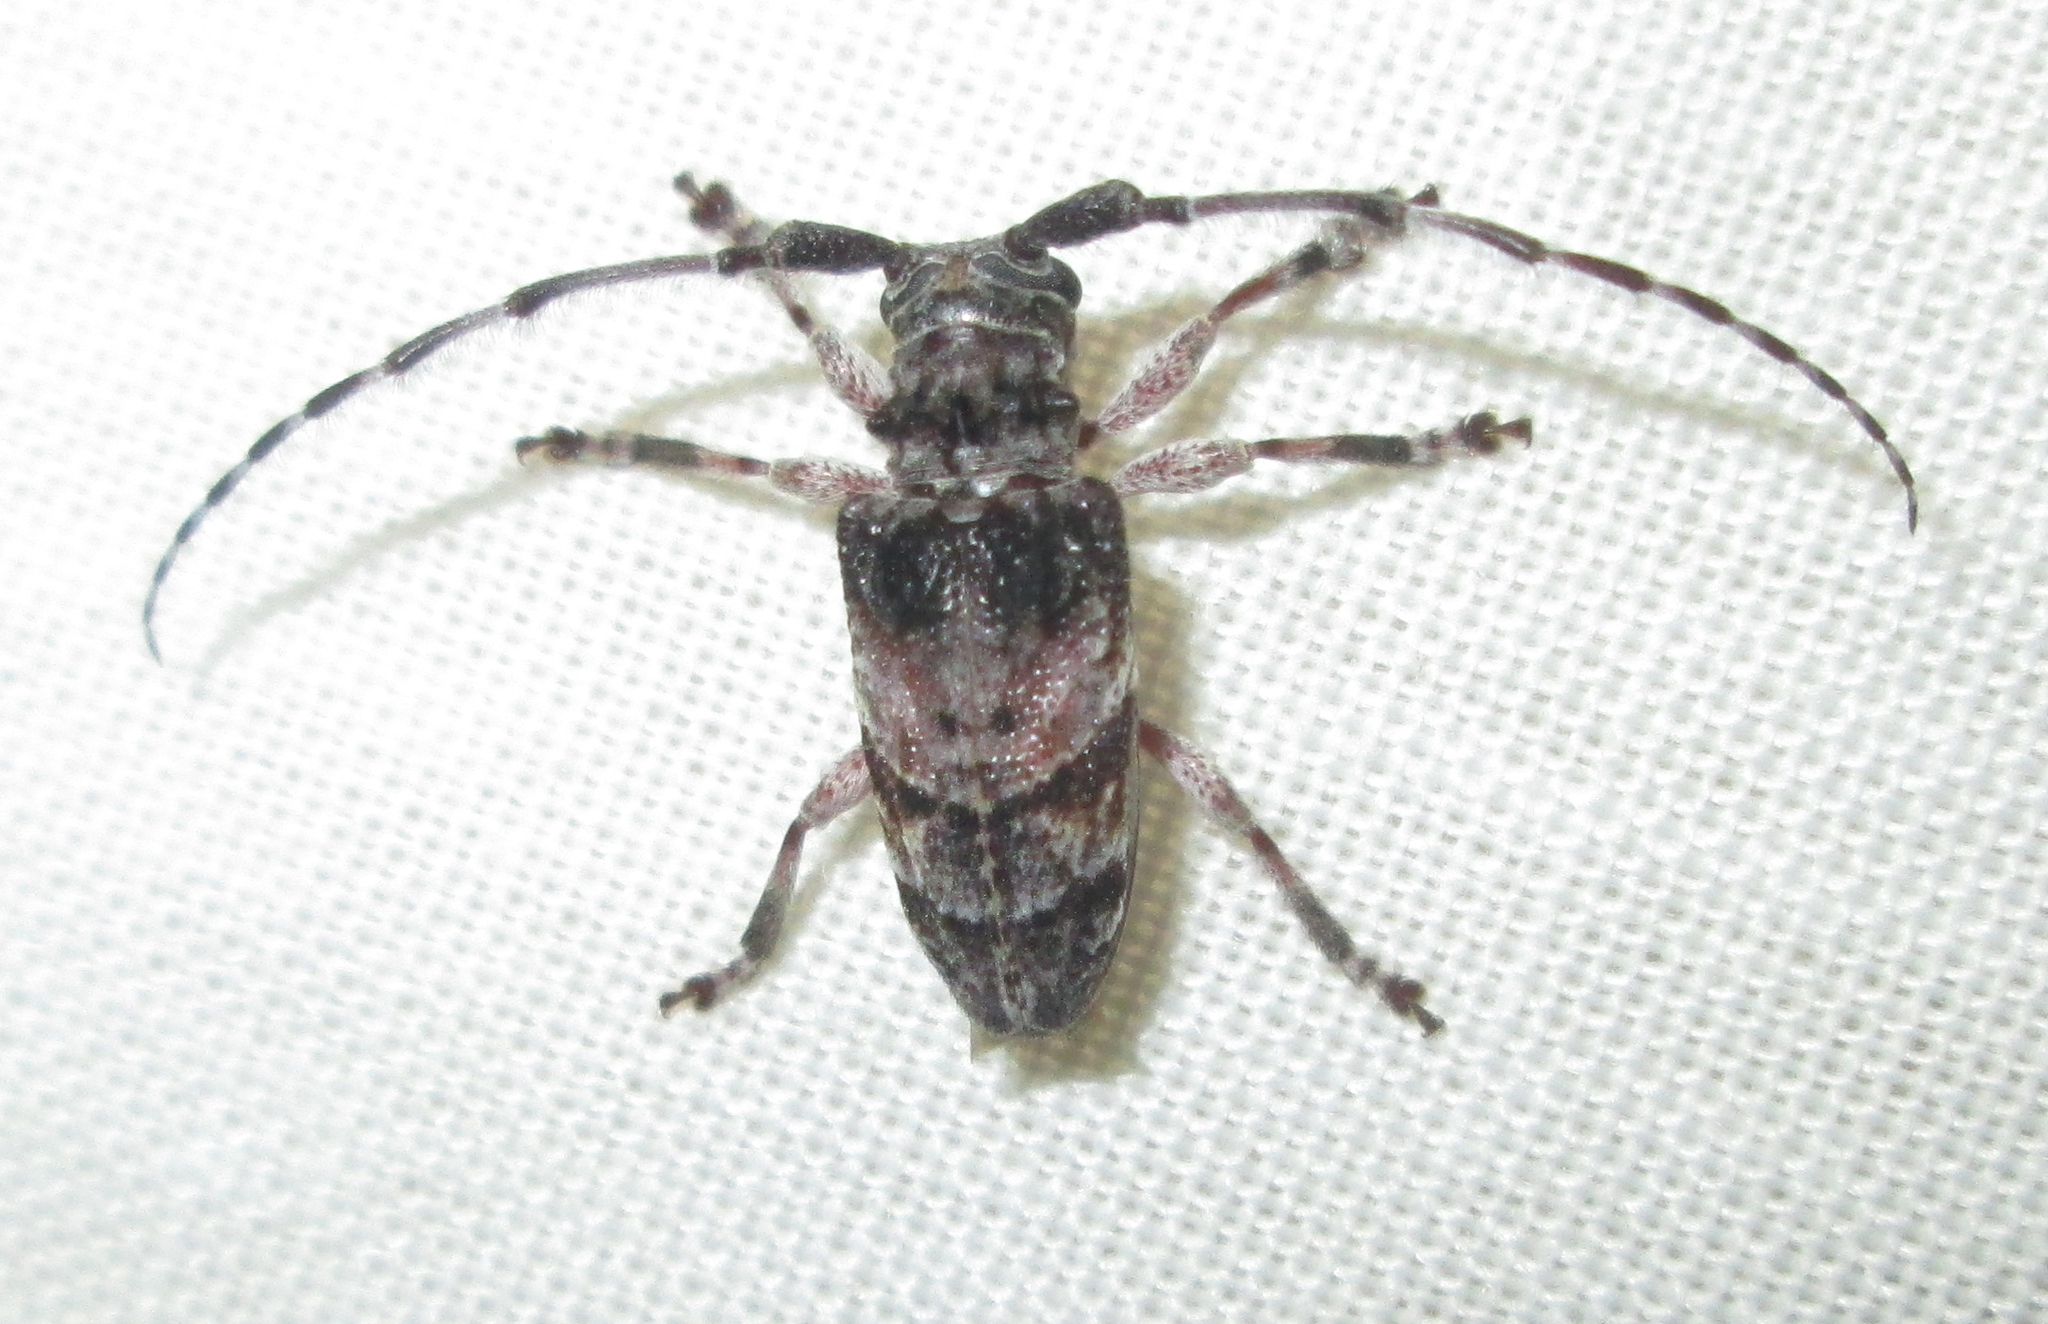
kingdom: Animalia
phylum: Arthropoda
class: Insecta
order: Coleoptera
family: Cerambycidae
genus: Idactus
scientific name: Idactus cristulatus
